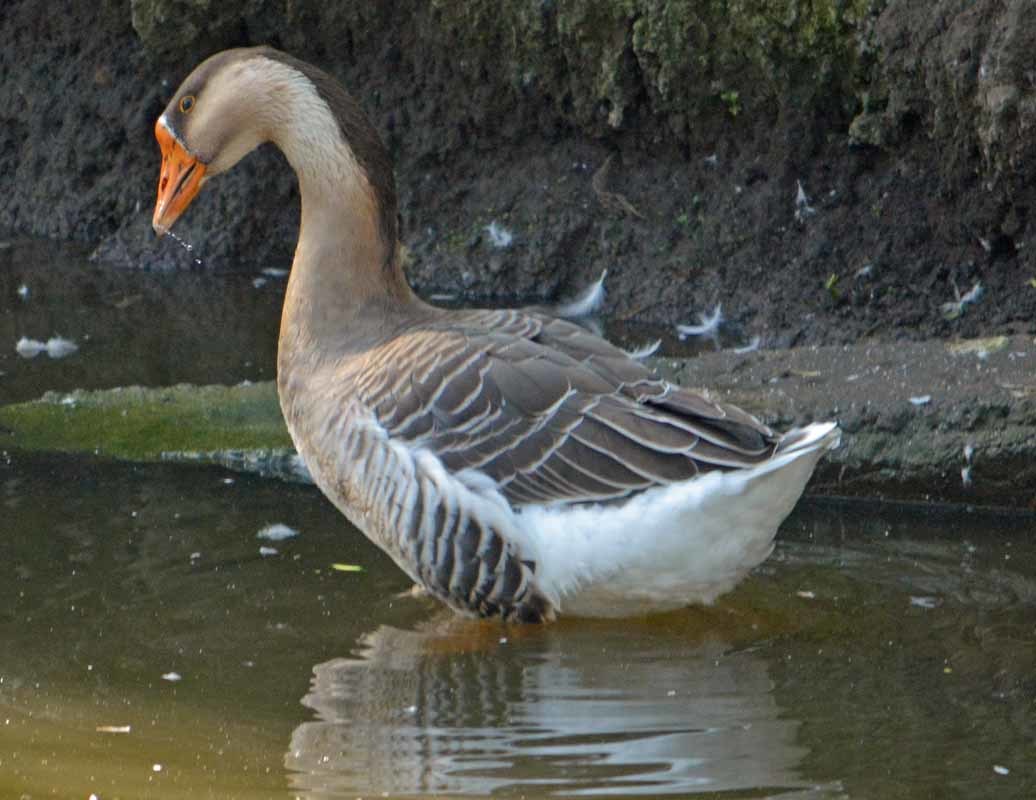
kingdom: Animalia
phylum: Chordata
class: Aves
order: Anseriformes
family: Anatidae
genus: Anser
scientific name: Anser
